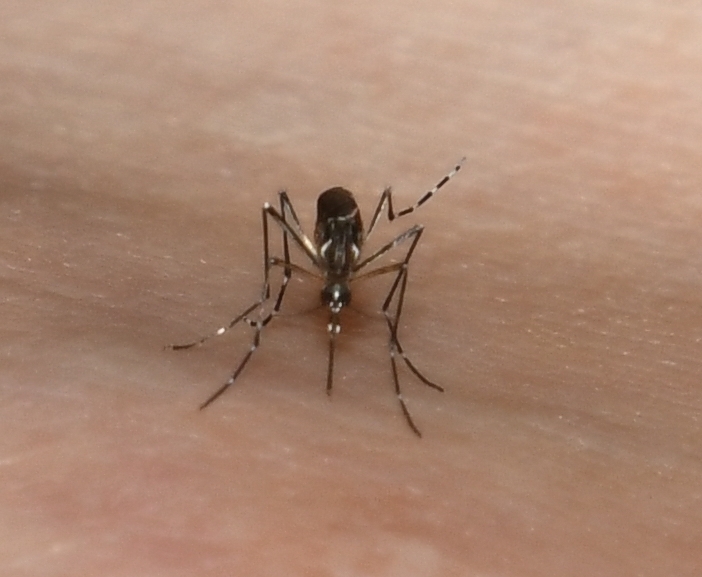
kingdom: Animalia
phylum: Arthropoda
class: Insecta
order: Diptera
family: Culicidae
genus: Aedes
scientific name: Aedes aegypti
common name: Yellow fever mosquito
